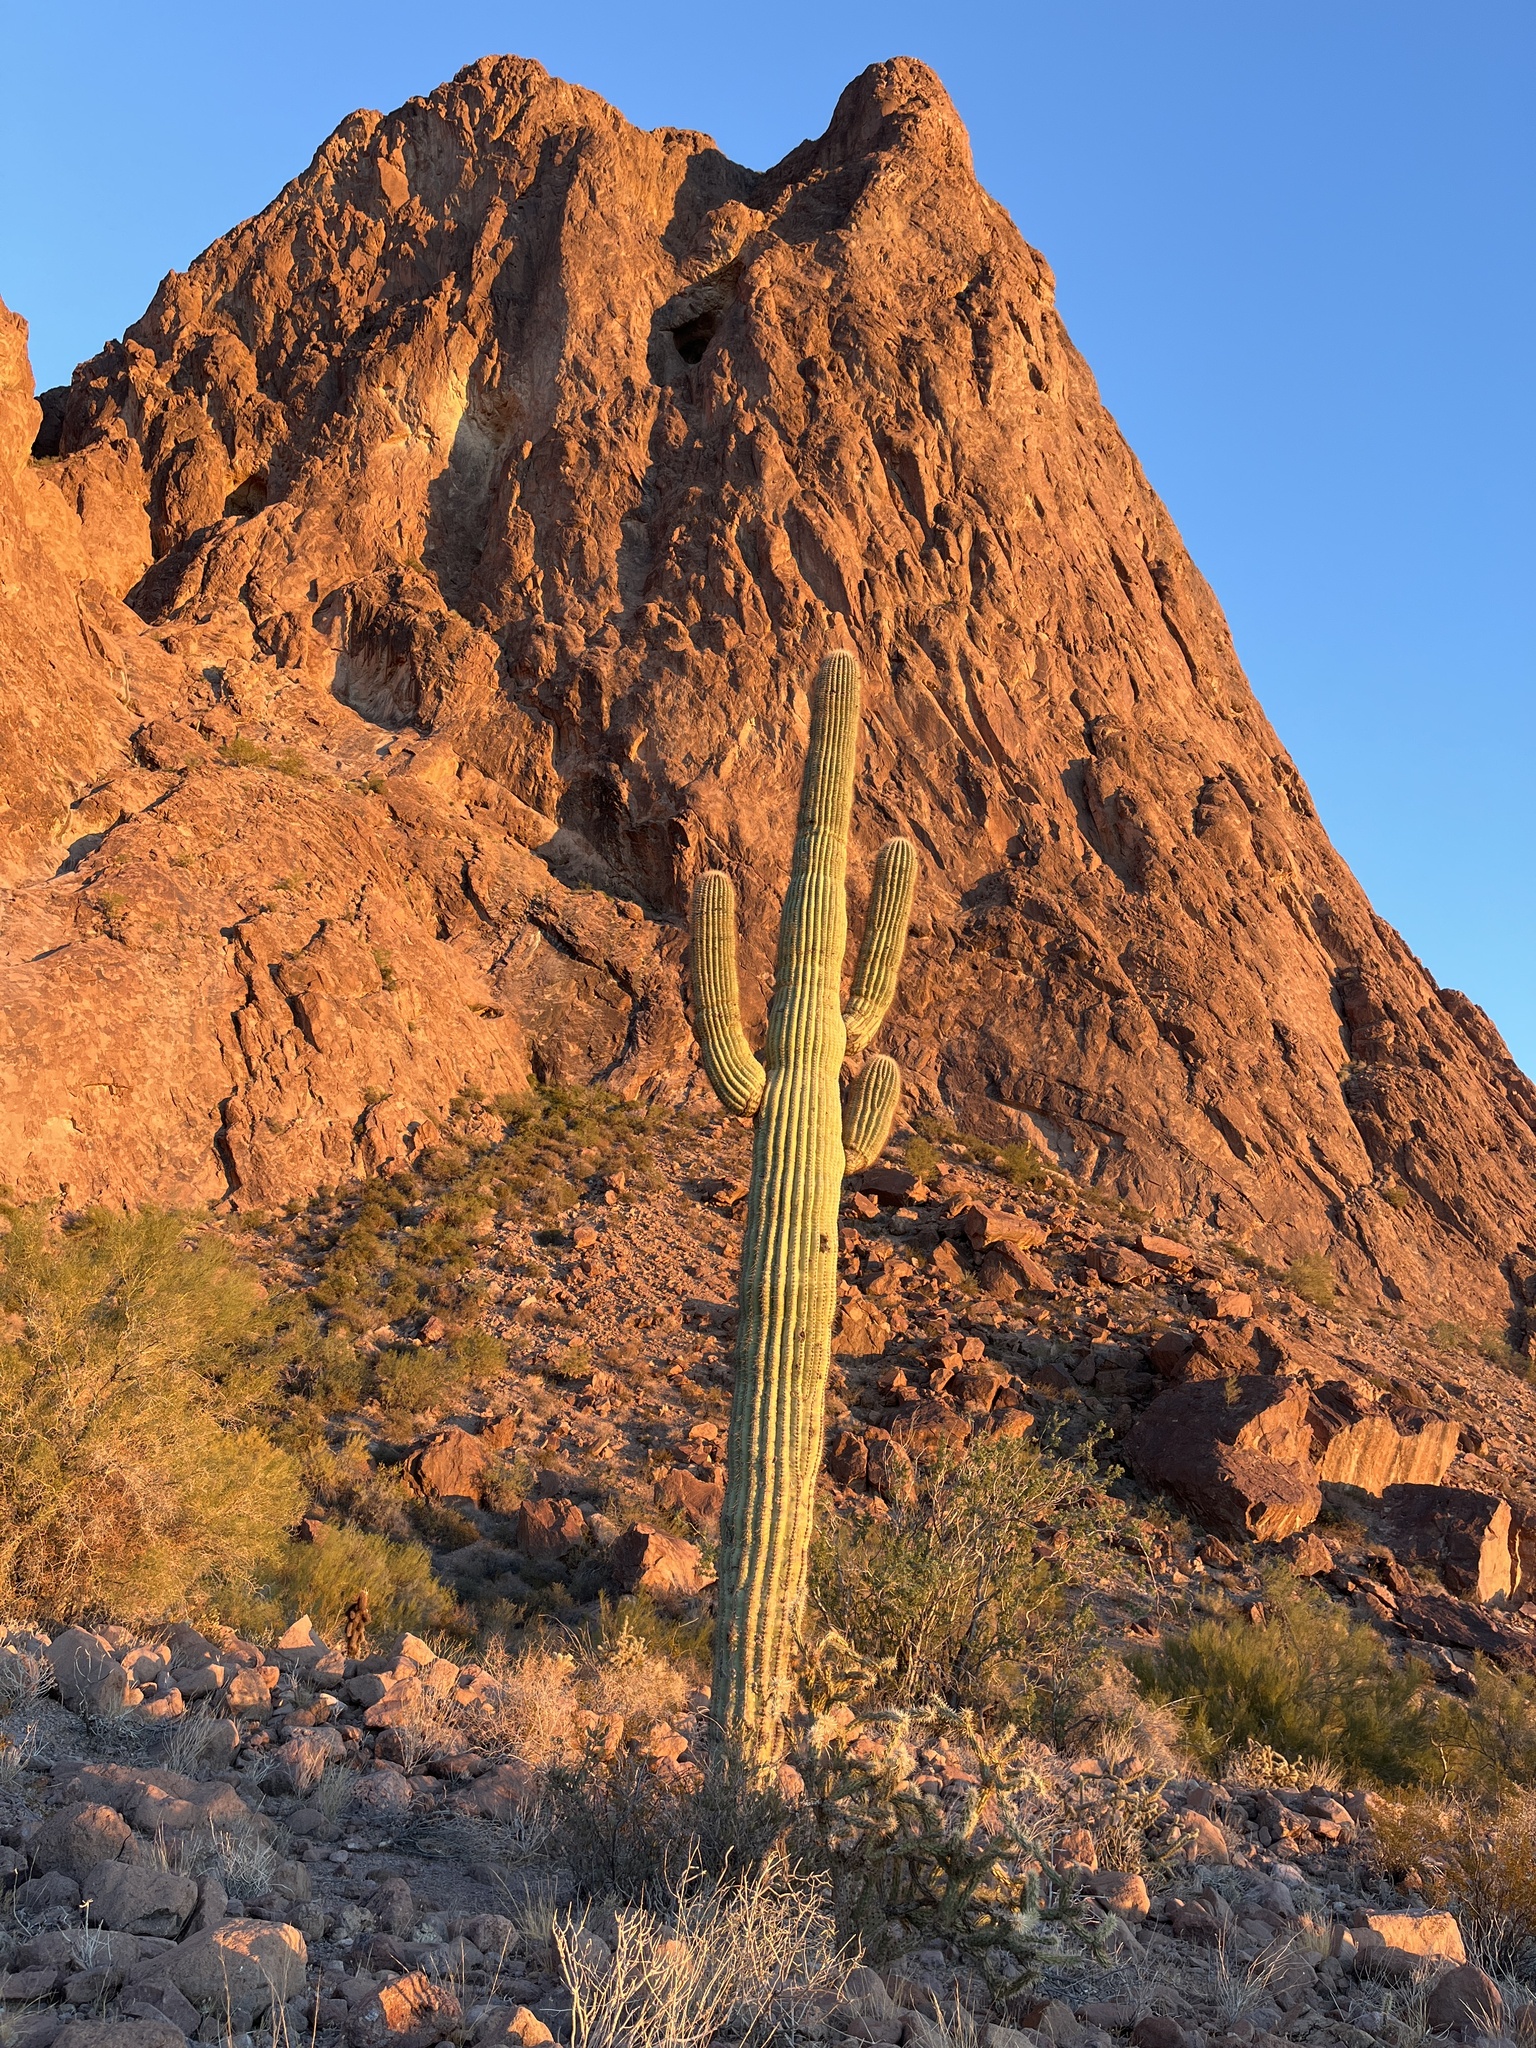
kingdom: Plantae
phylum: Tracheophyta
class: Magnoliopsida
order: Caryophyllales
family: Cactaceae
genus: Carnegiea
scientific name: Carnegiea gigantea
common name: Saguaro
